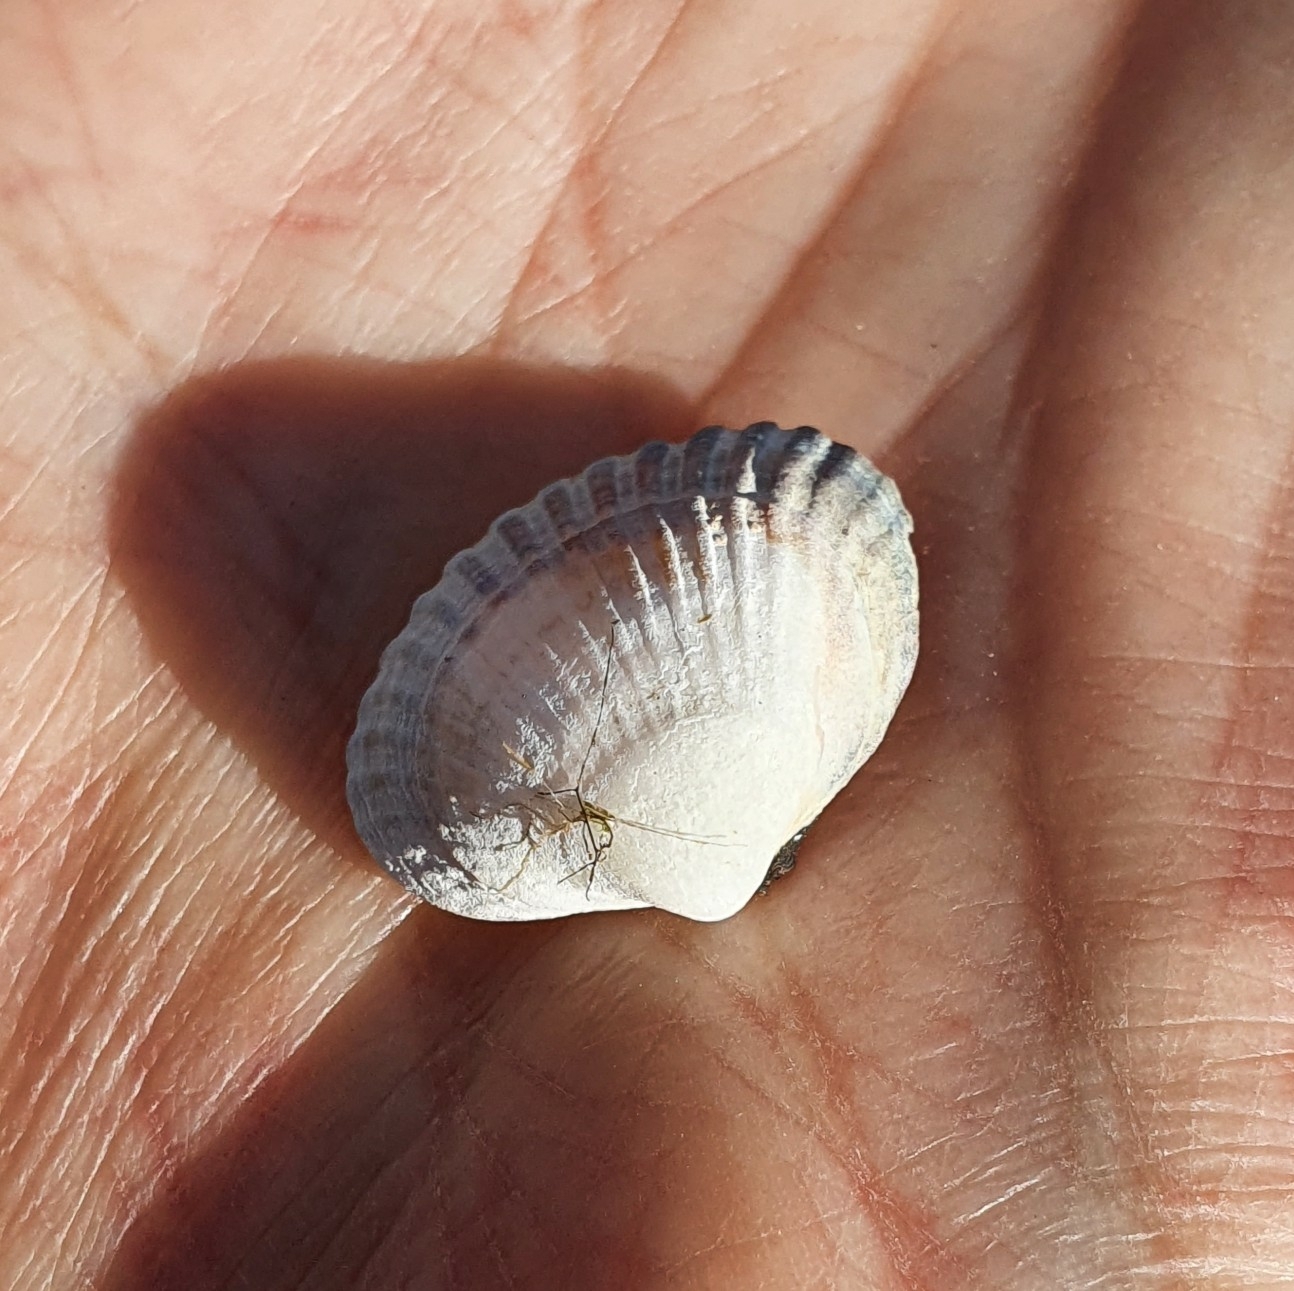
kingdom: Animalia
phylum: Mollusca
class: Bivalvia
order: Cardiida
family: Cardiidae
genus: Cerastoderma
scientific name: Cerastoderma glaucum
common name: Lagoon cockle
